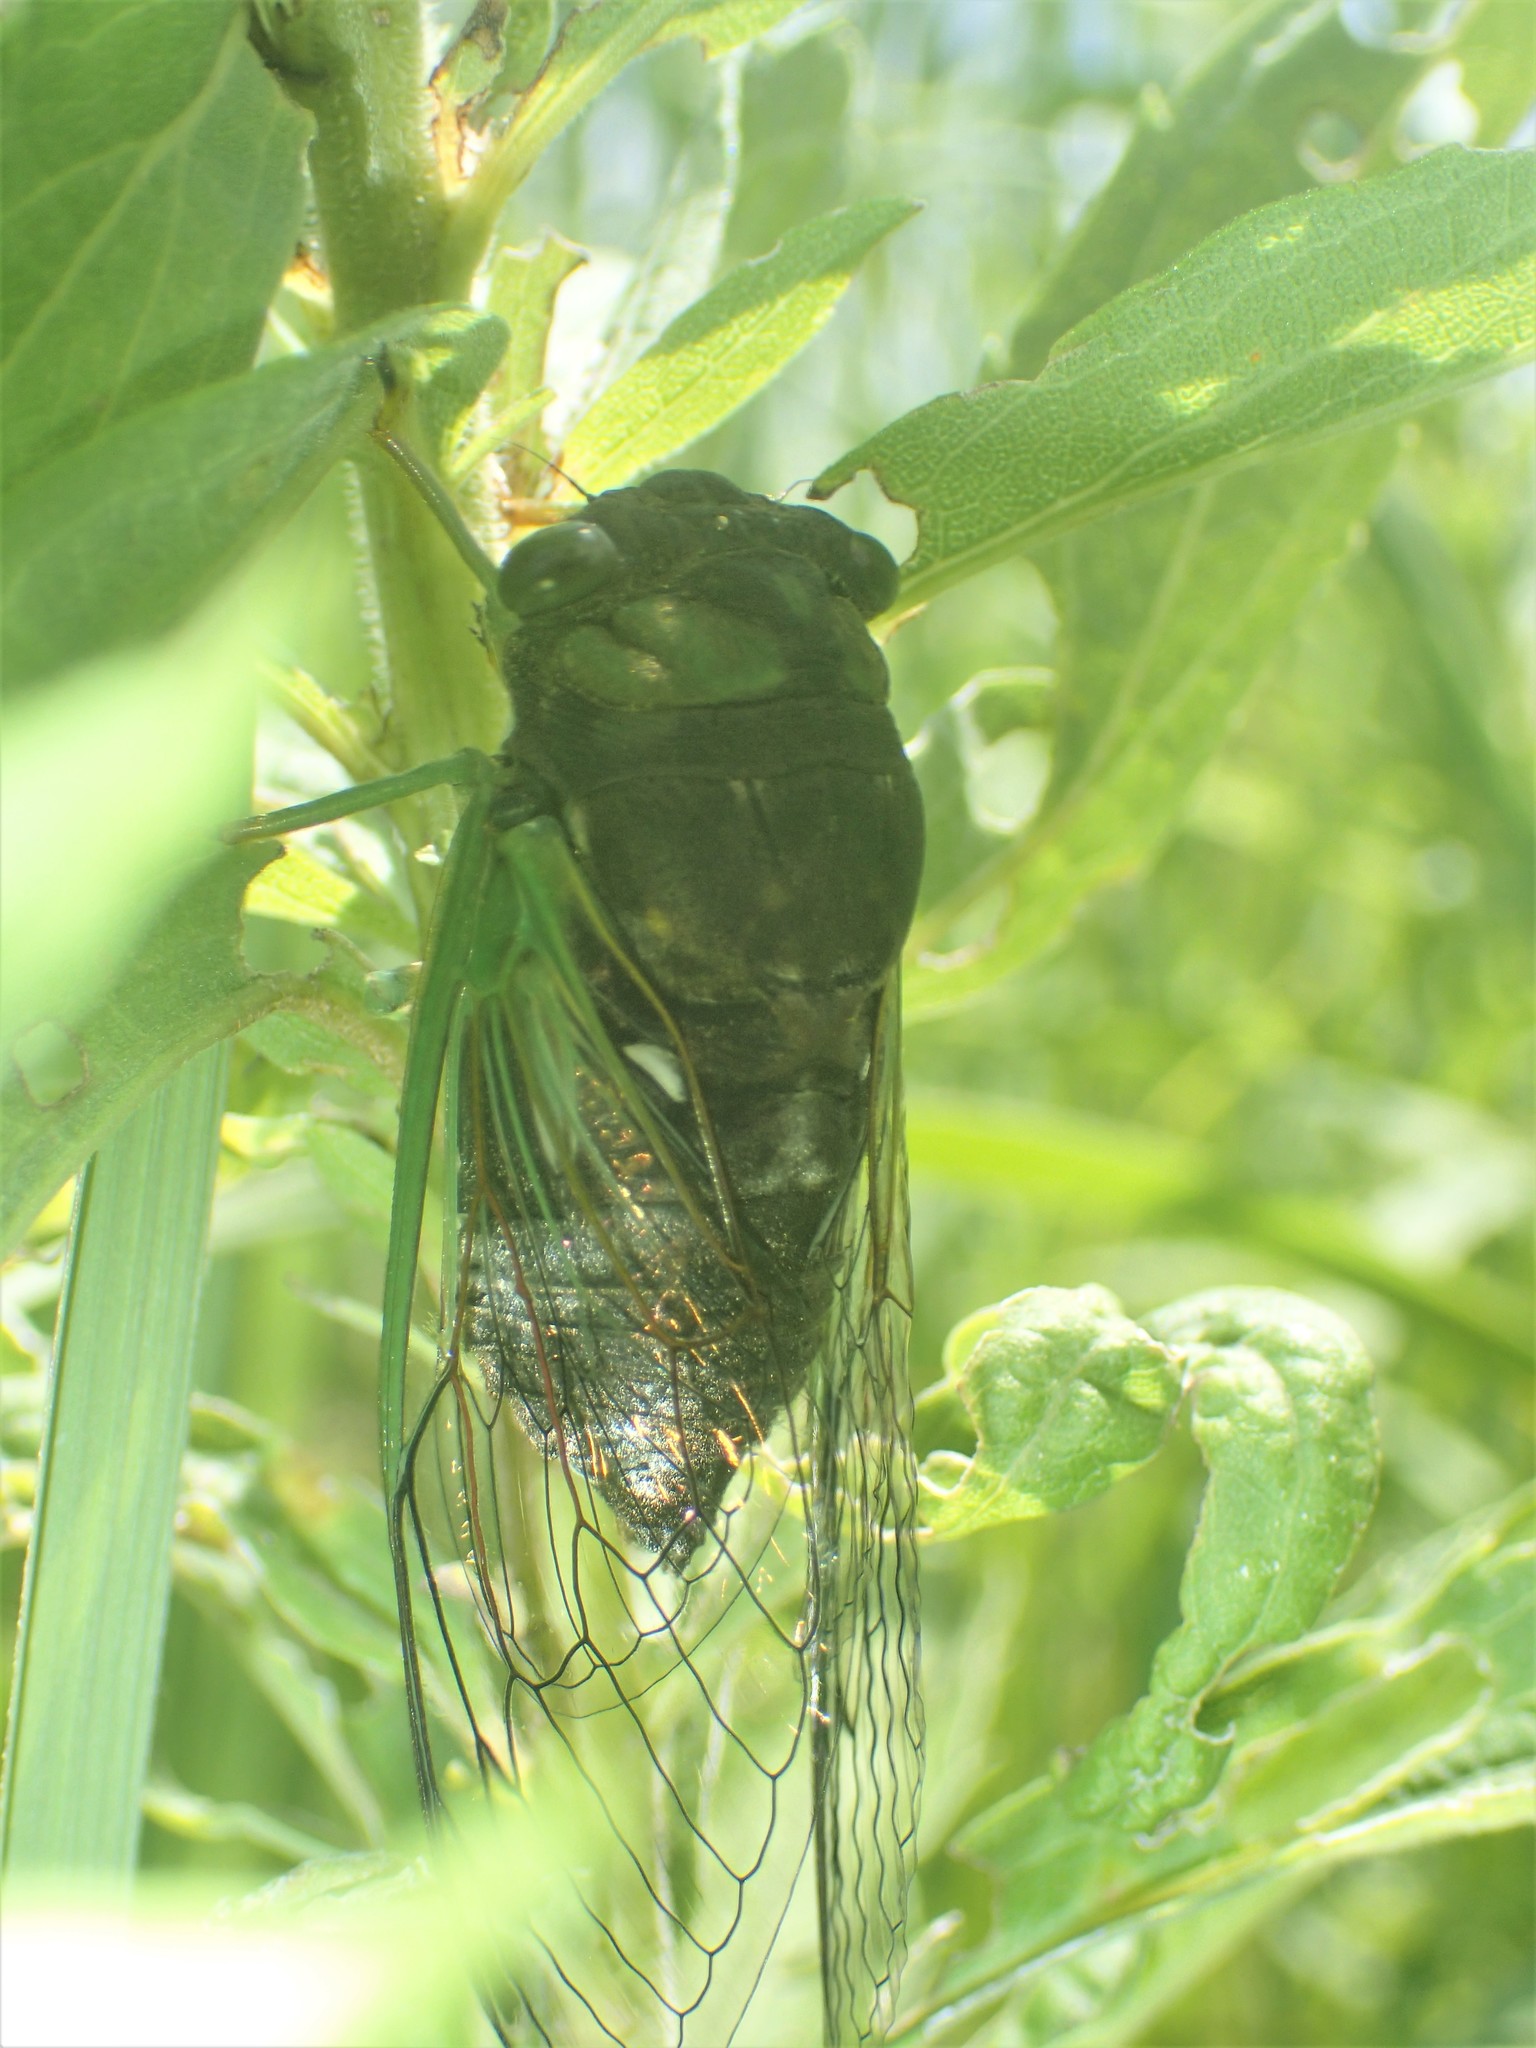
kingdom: Animalia
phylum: Arthropoda
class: Insecta
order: Hemiptera
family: Cicadidae
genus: Neotibicen
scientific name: Neotibicen tibicen
